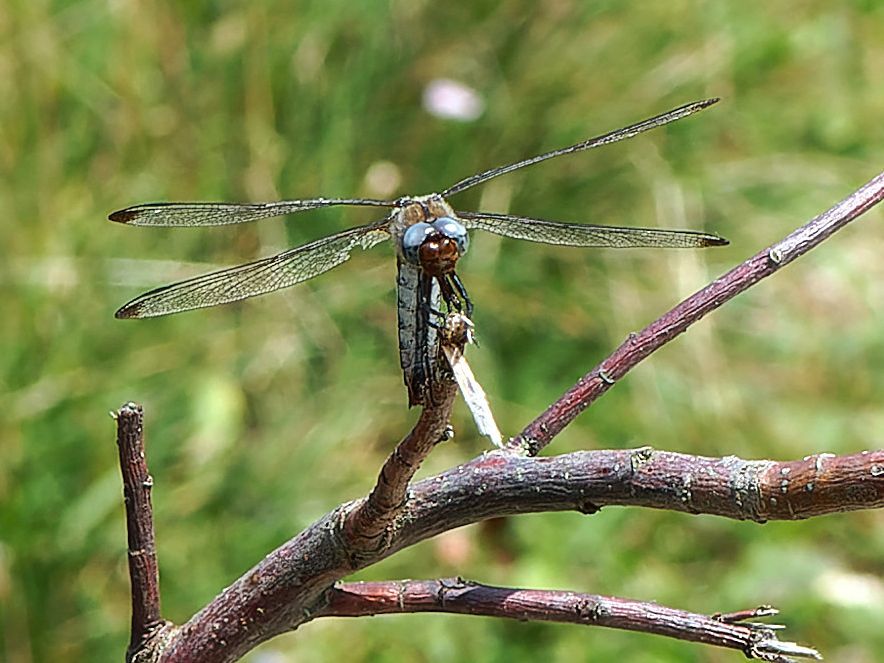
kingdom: Animalia
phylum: Arthropoda
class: Insecta
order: Odonata
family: Libellulidae
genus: Libellula
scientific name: Libellula fulva
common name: Blue chaser
